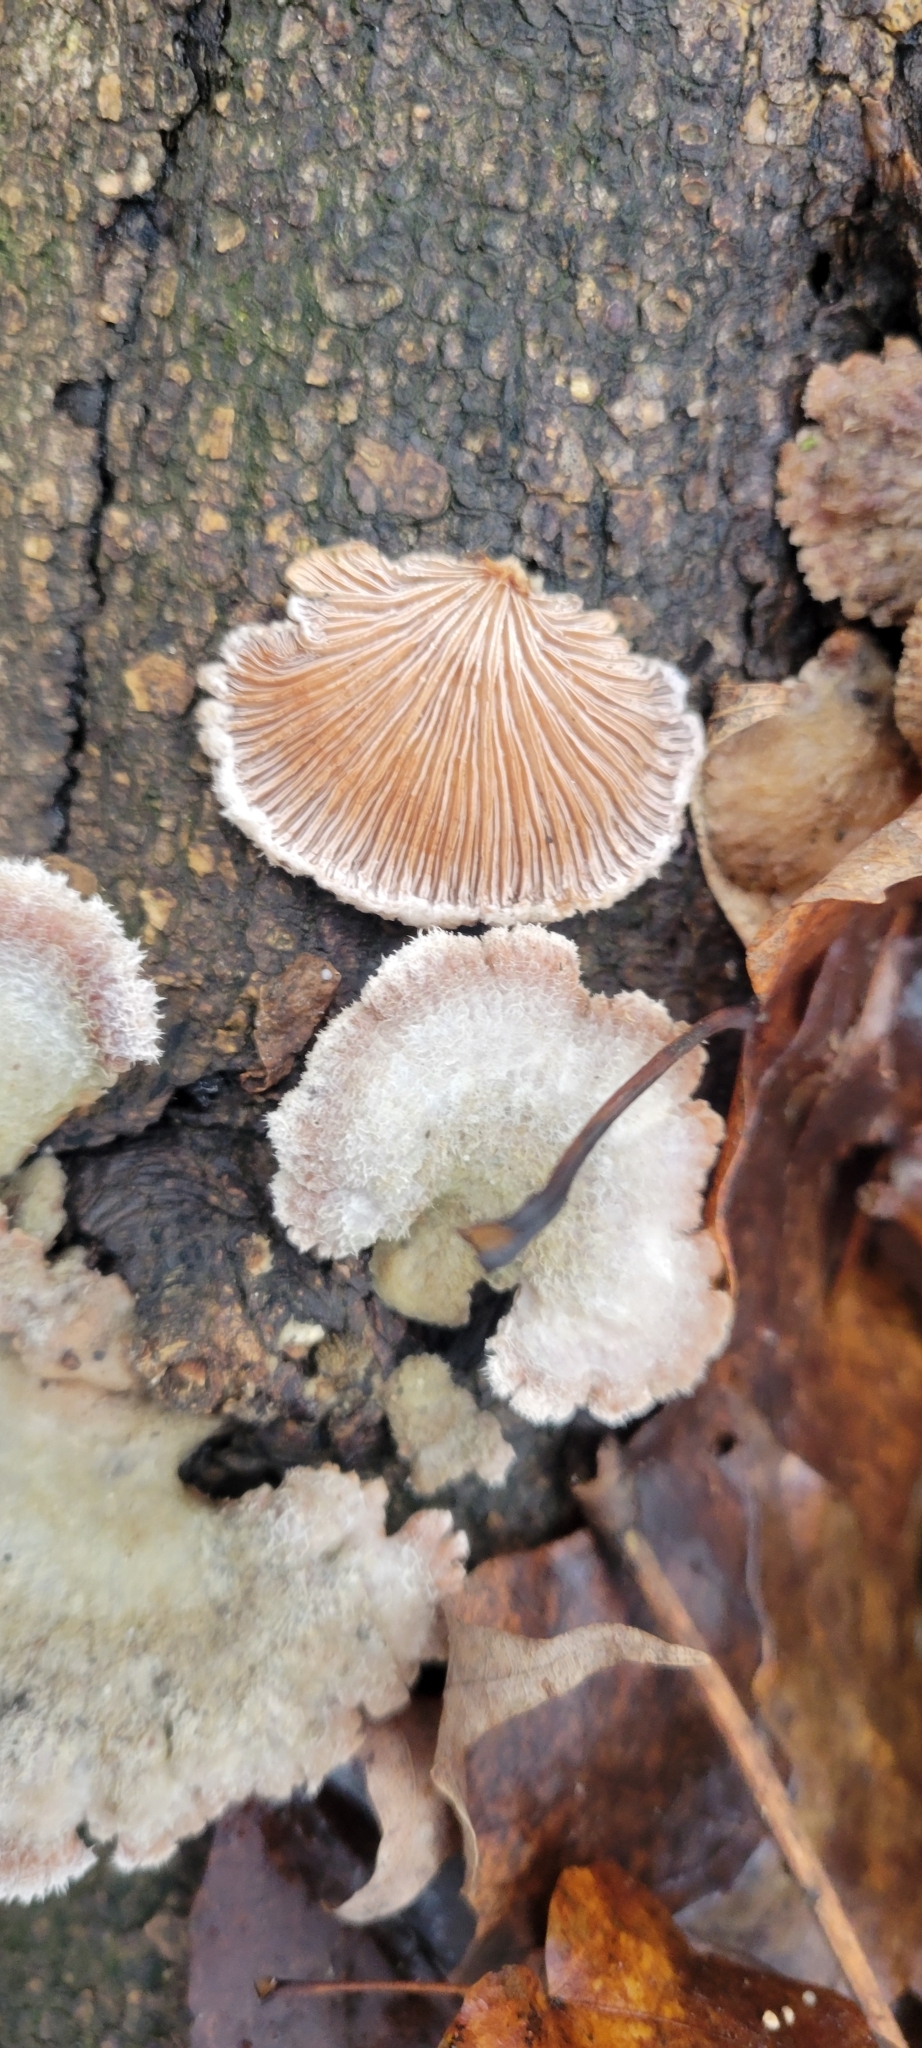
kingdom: Fungi
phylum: Basidiomycota
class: Agaricomycetes
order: Agaricales
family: Schizophyllaceae
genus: Schizophyllum
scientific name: Schizophyllum commune
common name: Common porecrust
